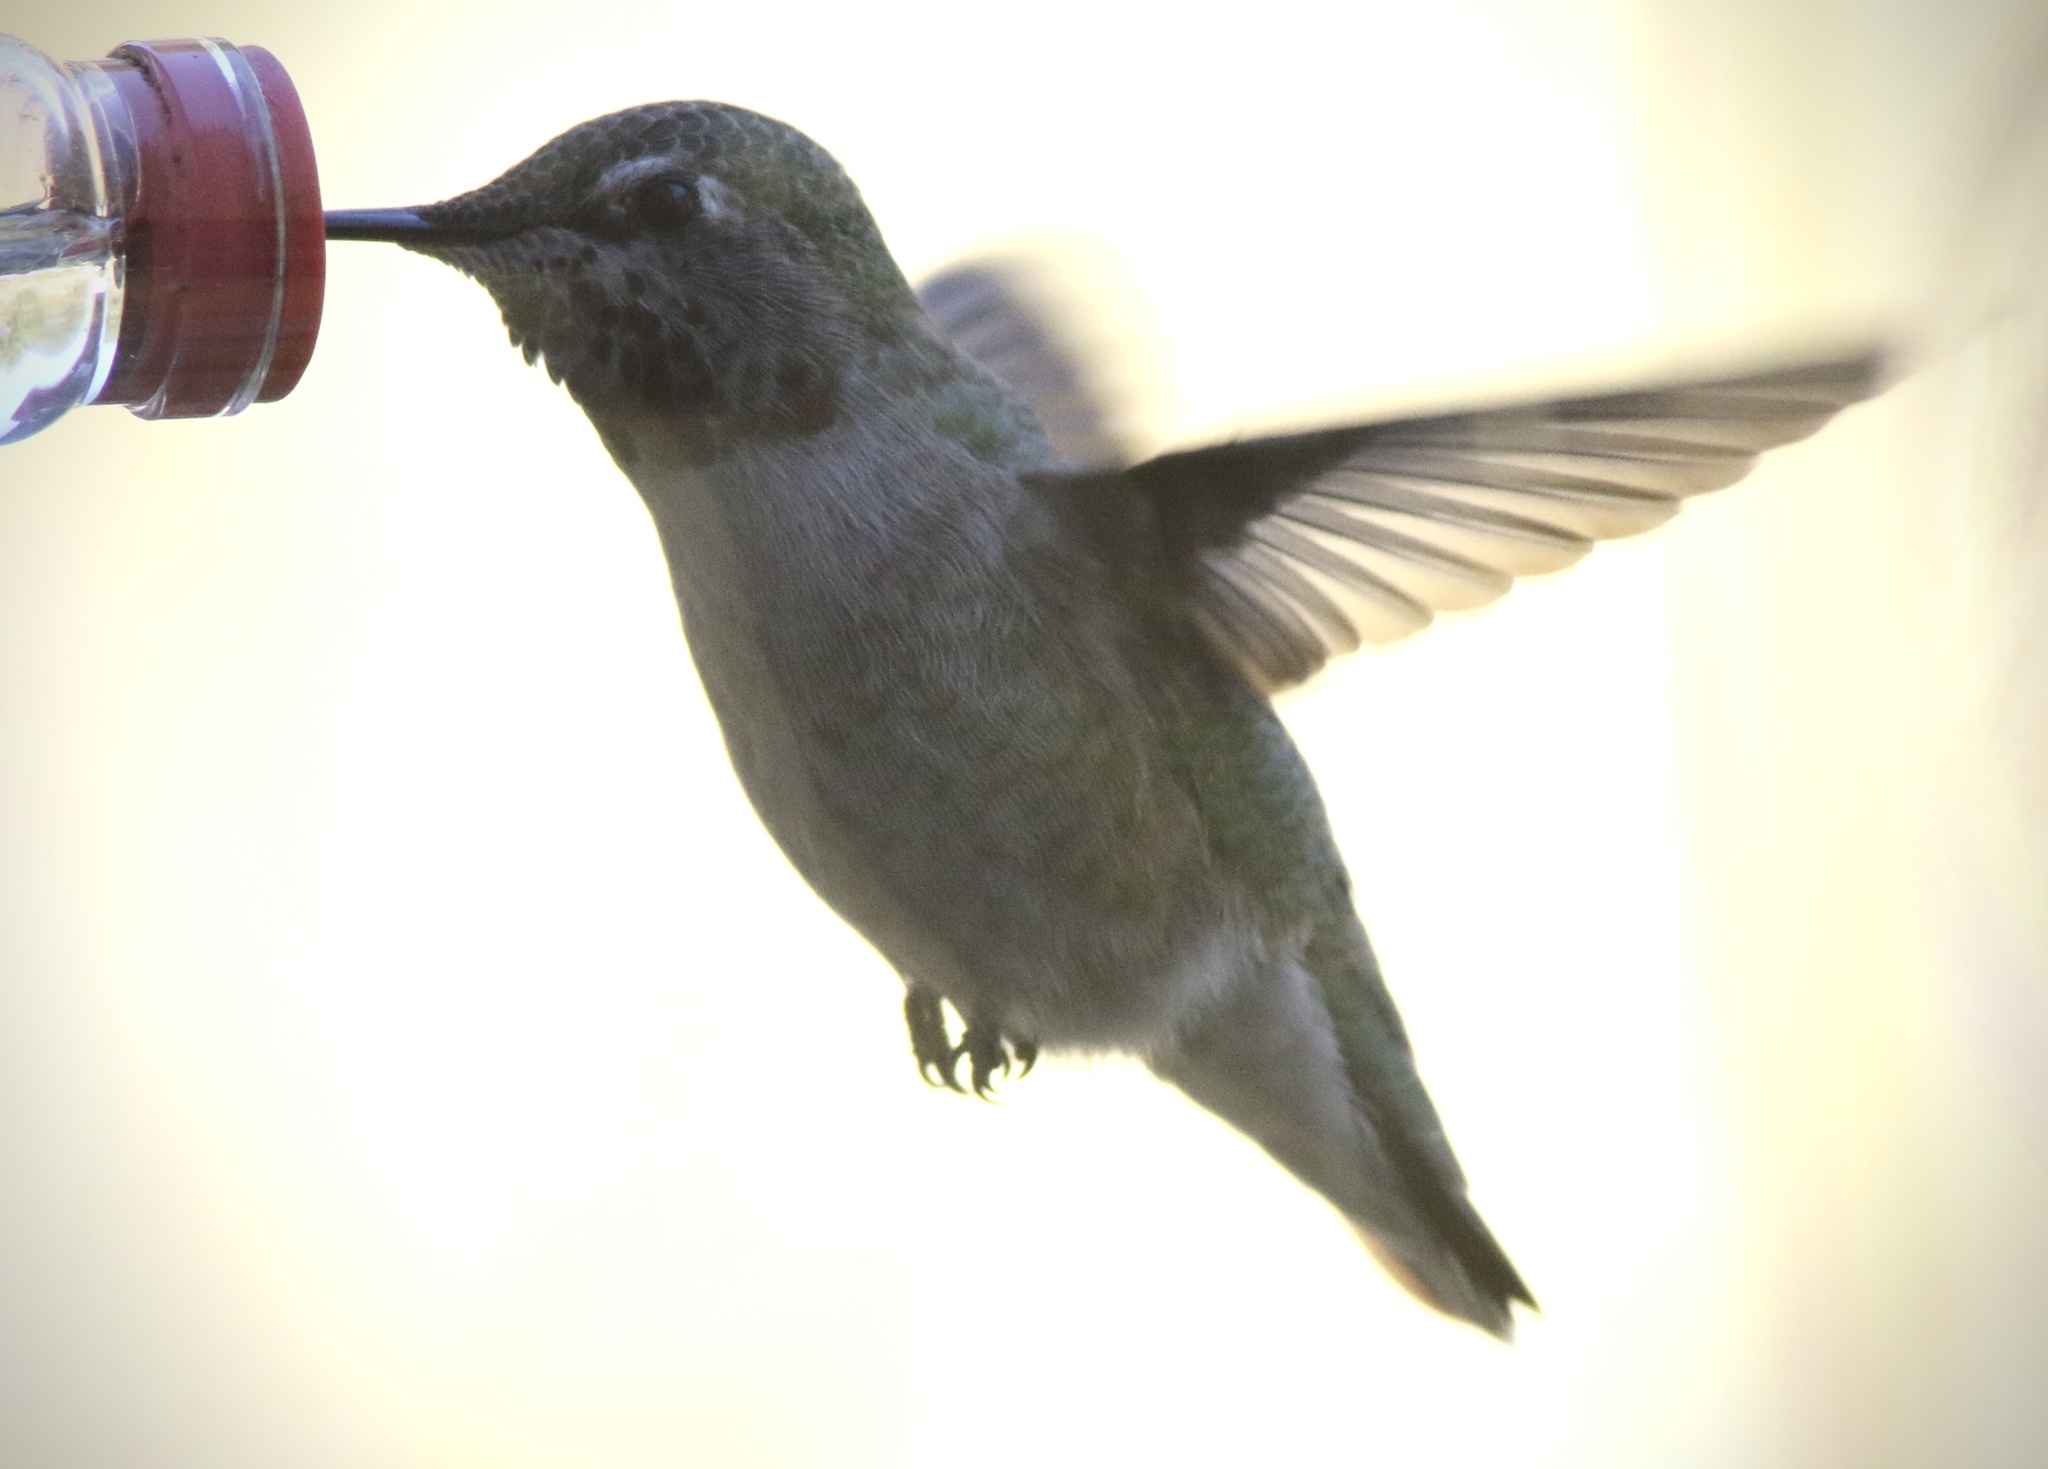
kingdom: Animalia
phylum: Chordata
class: Aves
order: Apodiformes
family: Trochilidae
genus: Calypte
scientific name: Calypte anna
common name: Anna's hummingbird
